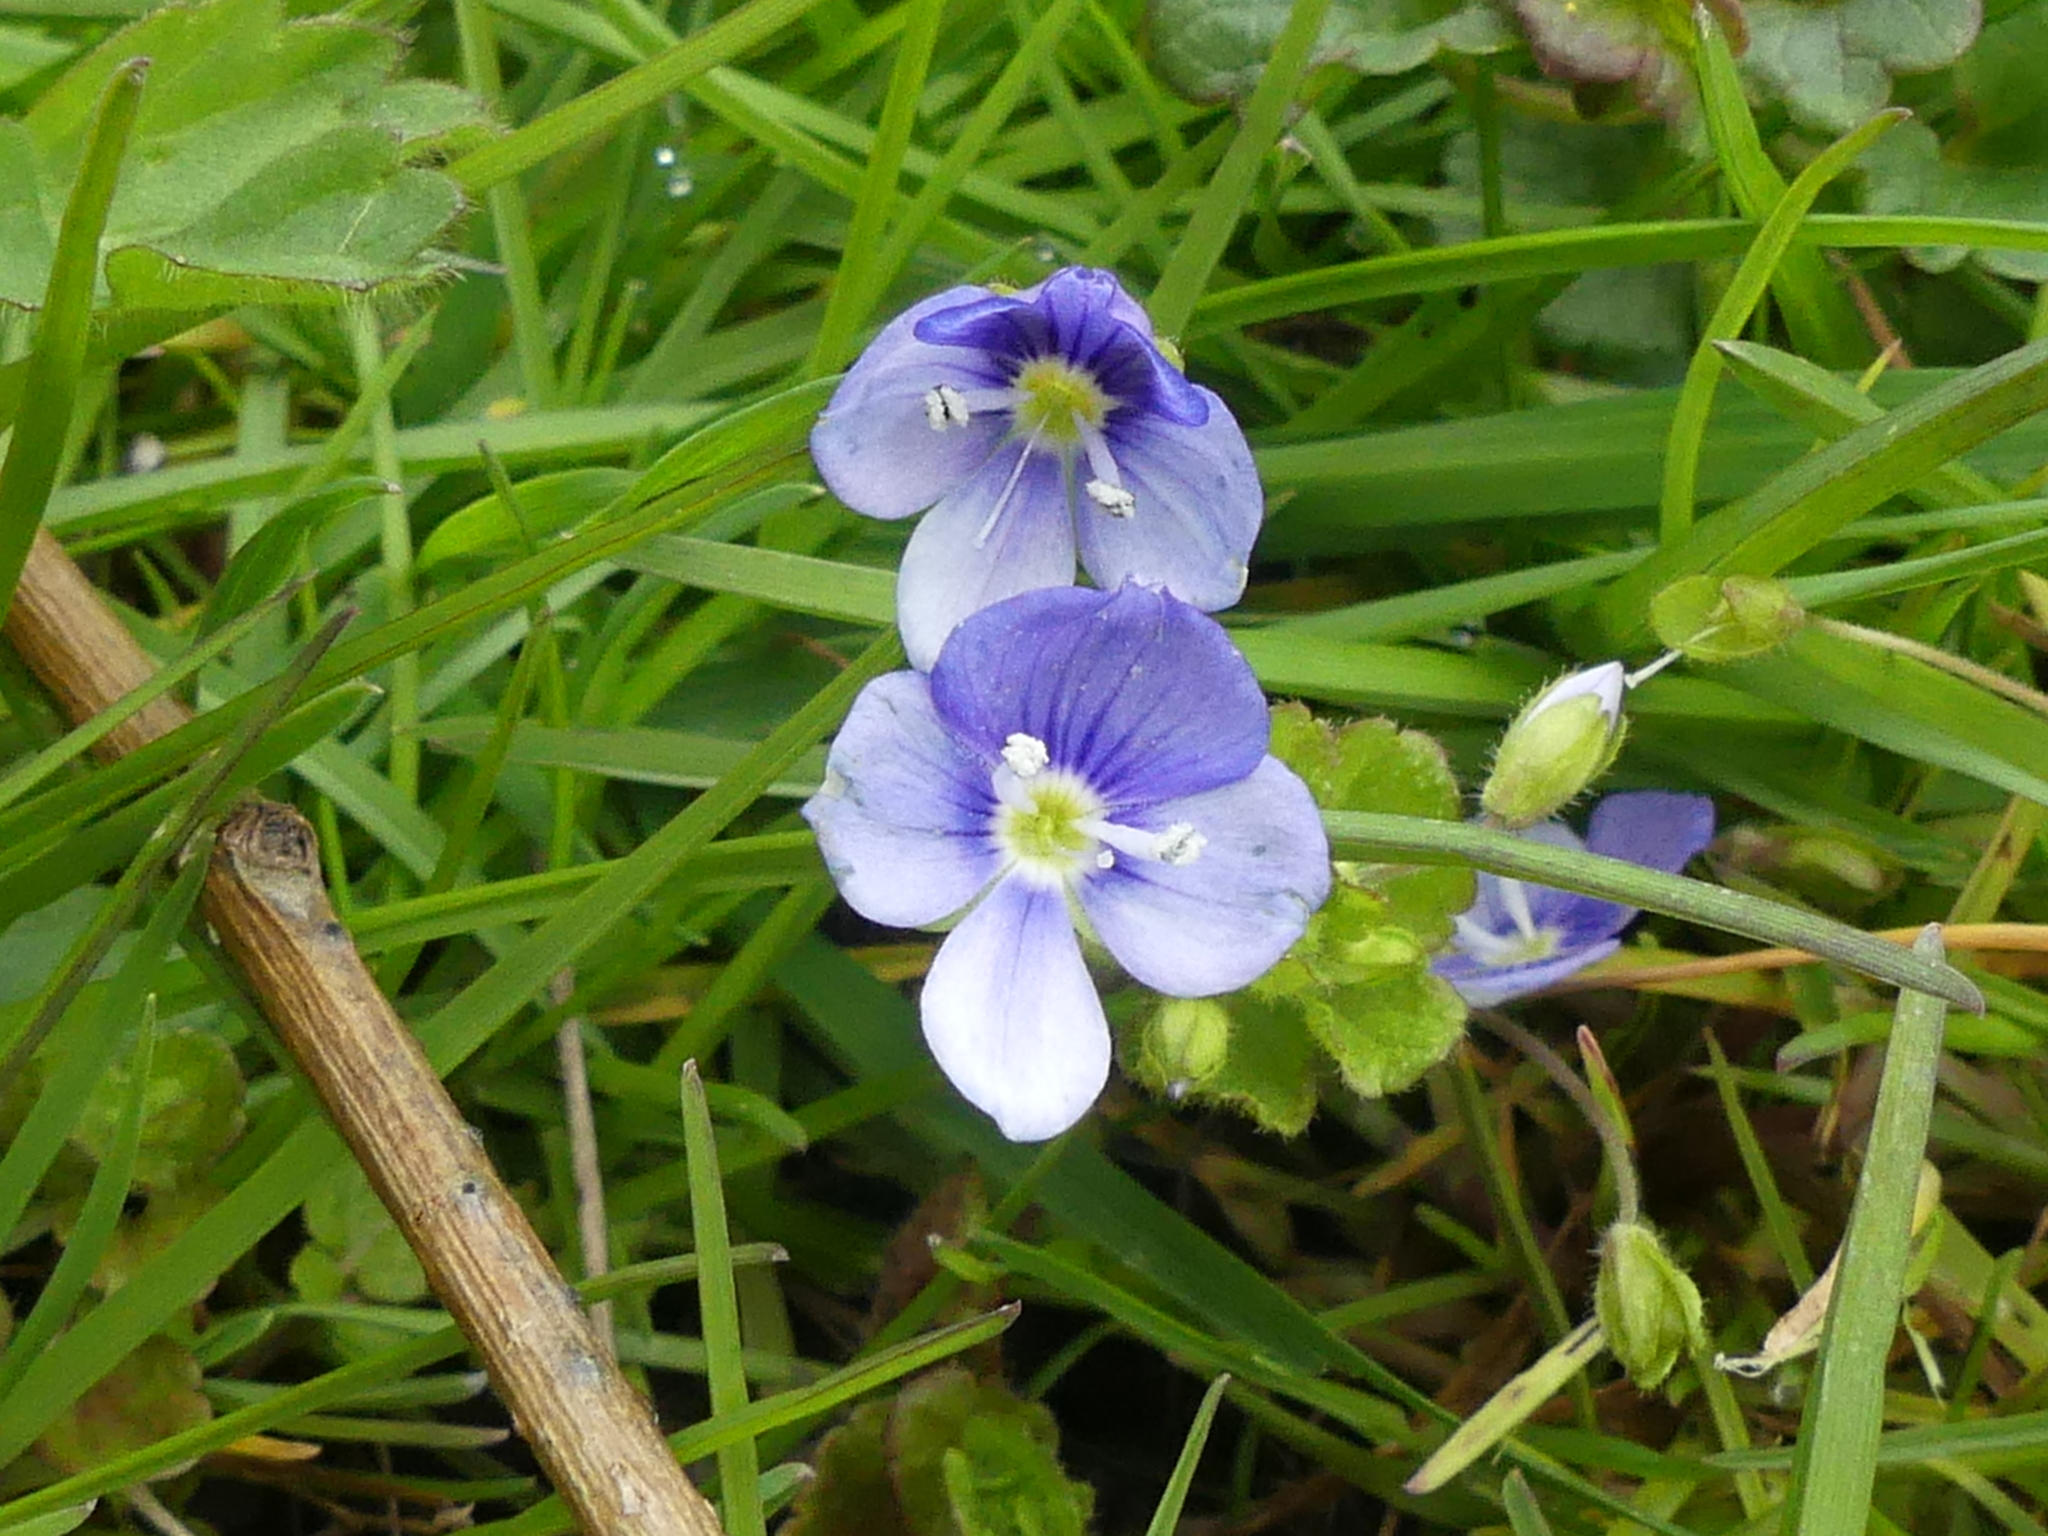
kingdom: Plantae
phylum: Tracheophyta
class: Magnoliopsida
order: Lamiales
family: Plantaginaceae
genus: Veronica
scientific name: Veronica filiformis
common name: Slender speedwell
